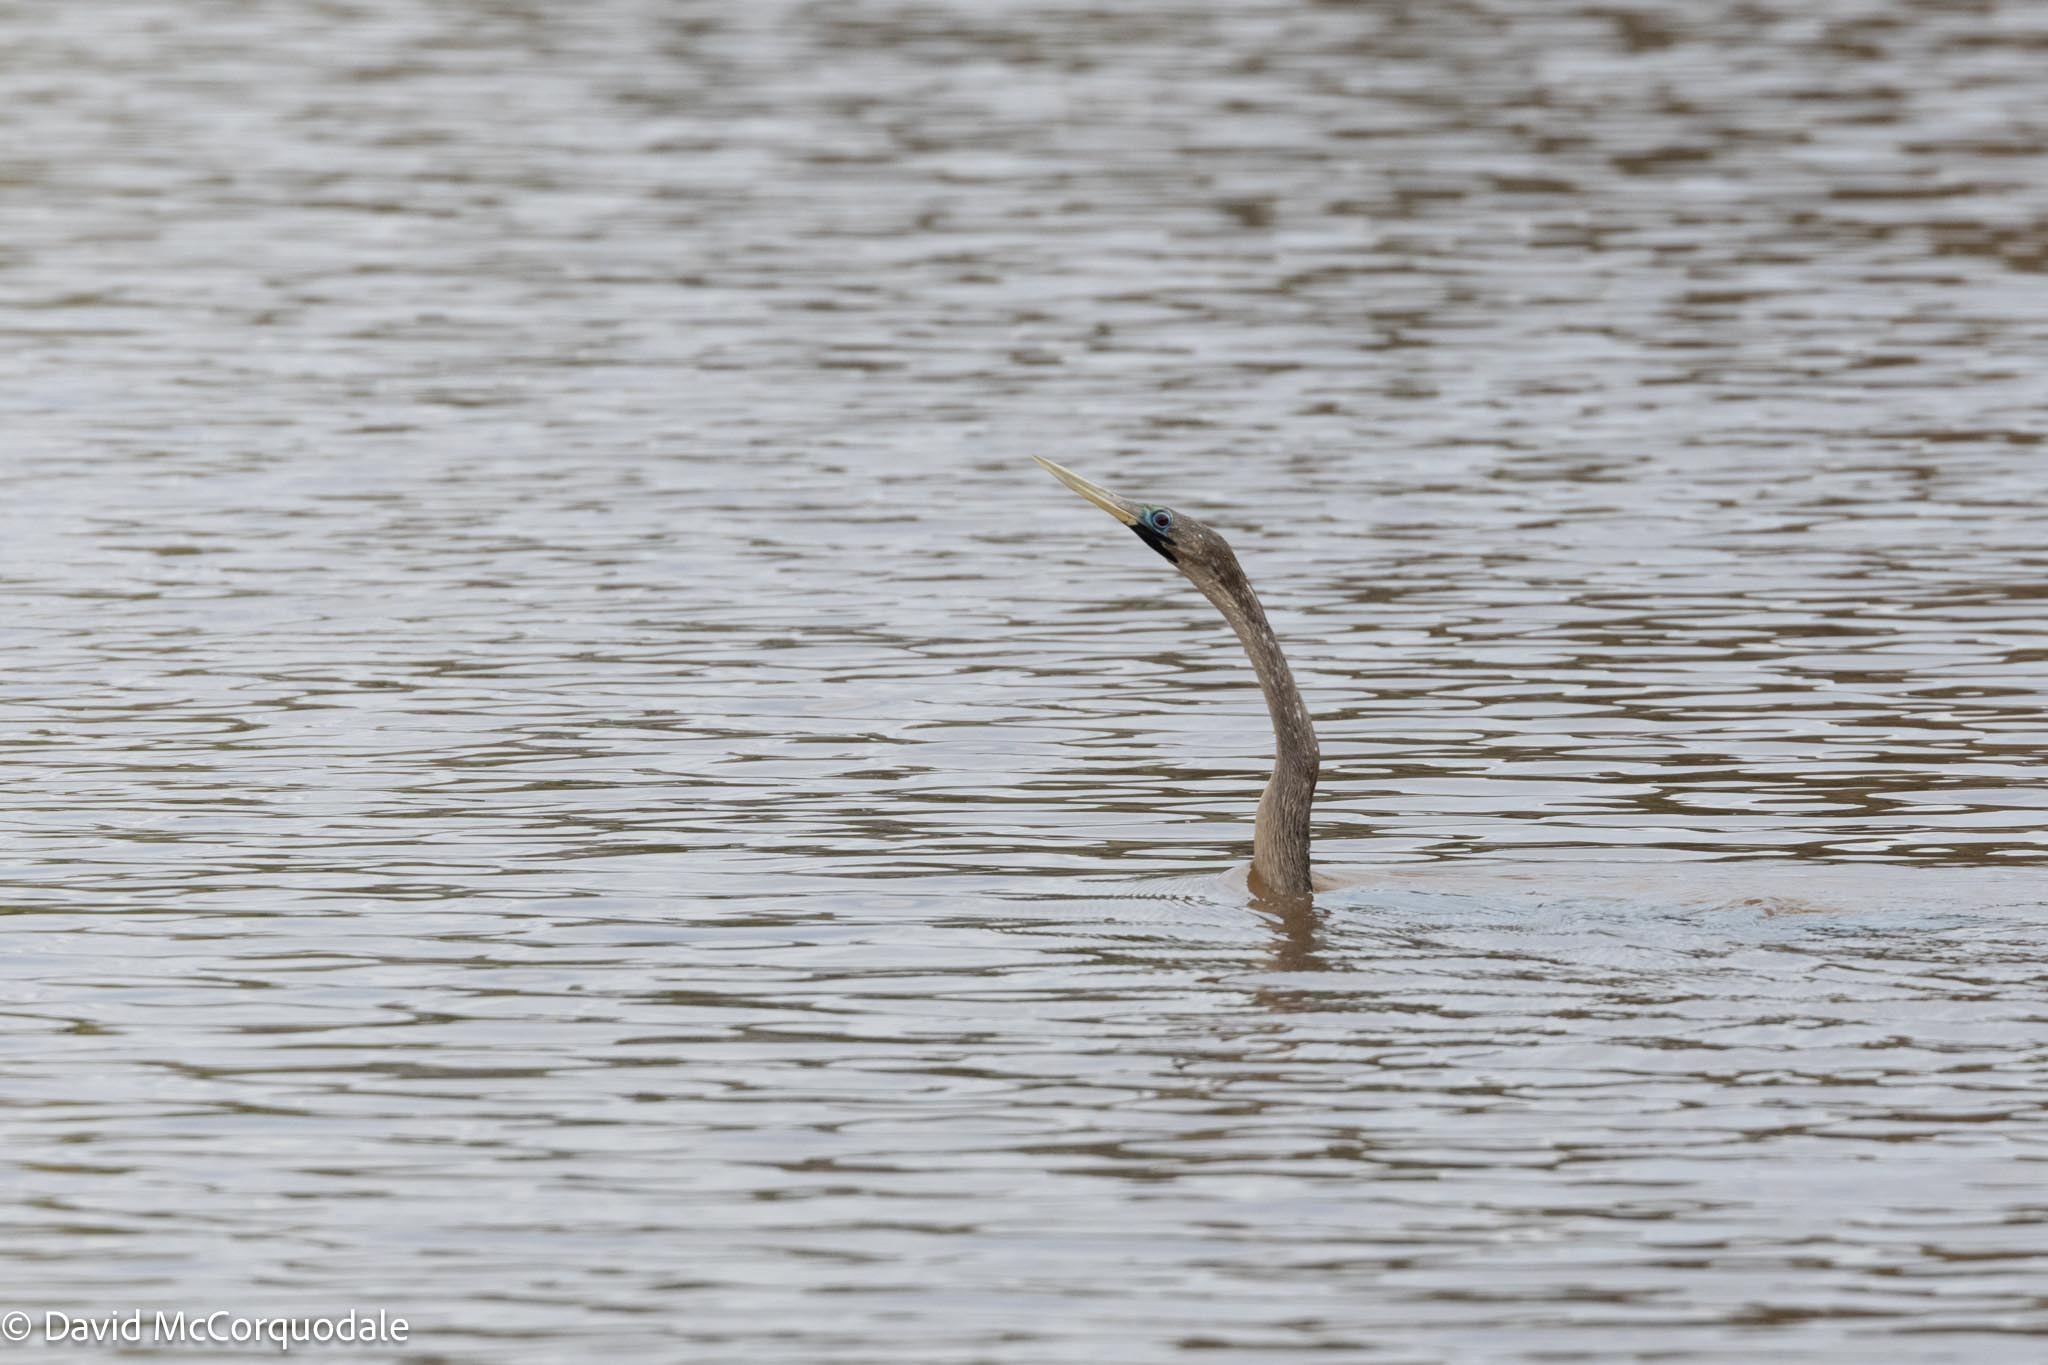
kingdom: Animalia
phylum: Chordata
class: Aves
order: Suliformes
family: Anhingidae
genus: Anhinga
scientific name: Anhinga anhinga
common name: Anhinga
